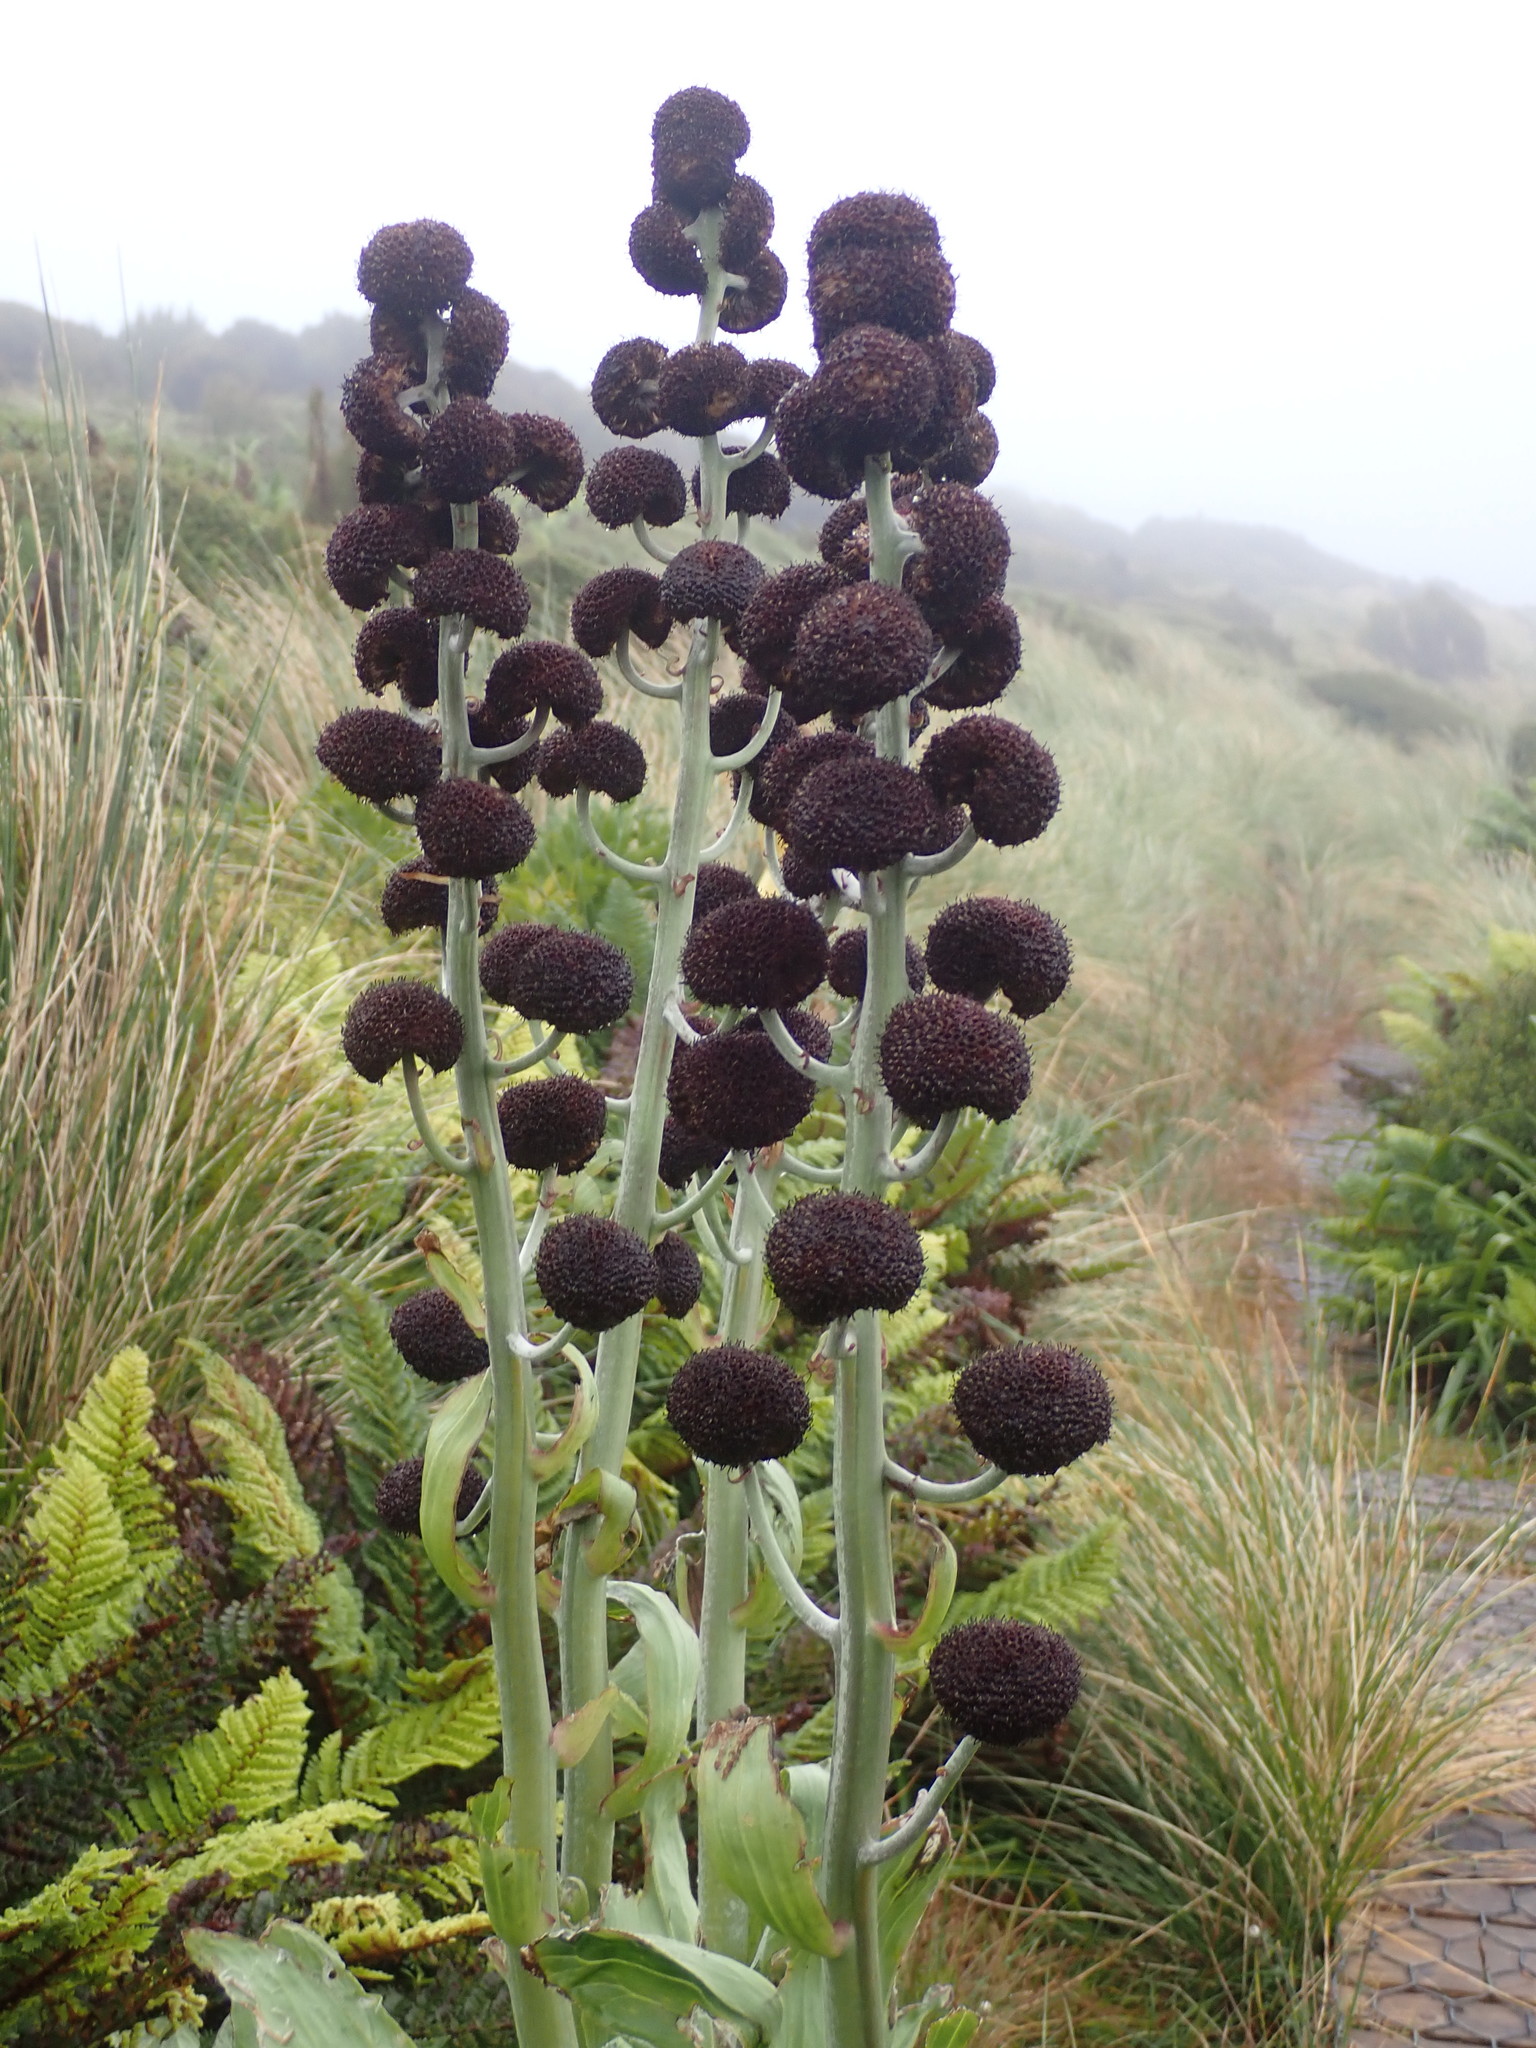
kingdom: Plantae
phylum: Tracheophyta
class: Magnoliopsida
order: Asterales
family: Asteraceae
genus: Pleurophyllum
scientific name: Pleurophyllum criniferum
